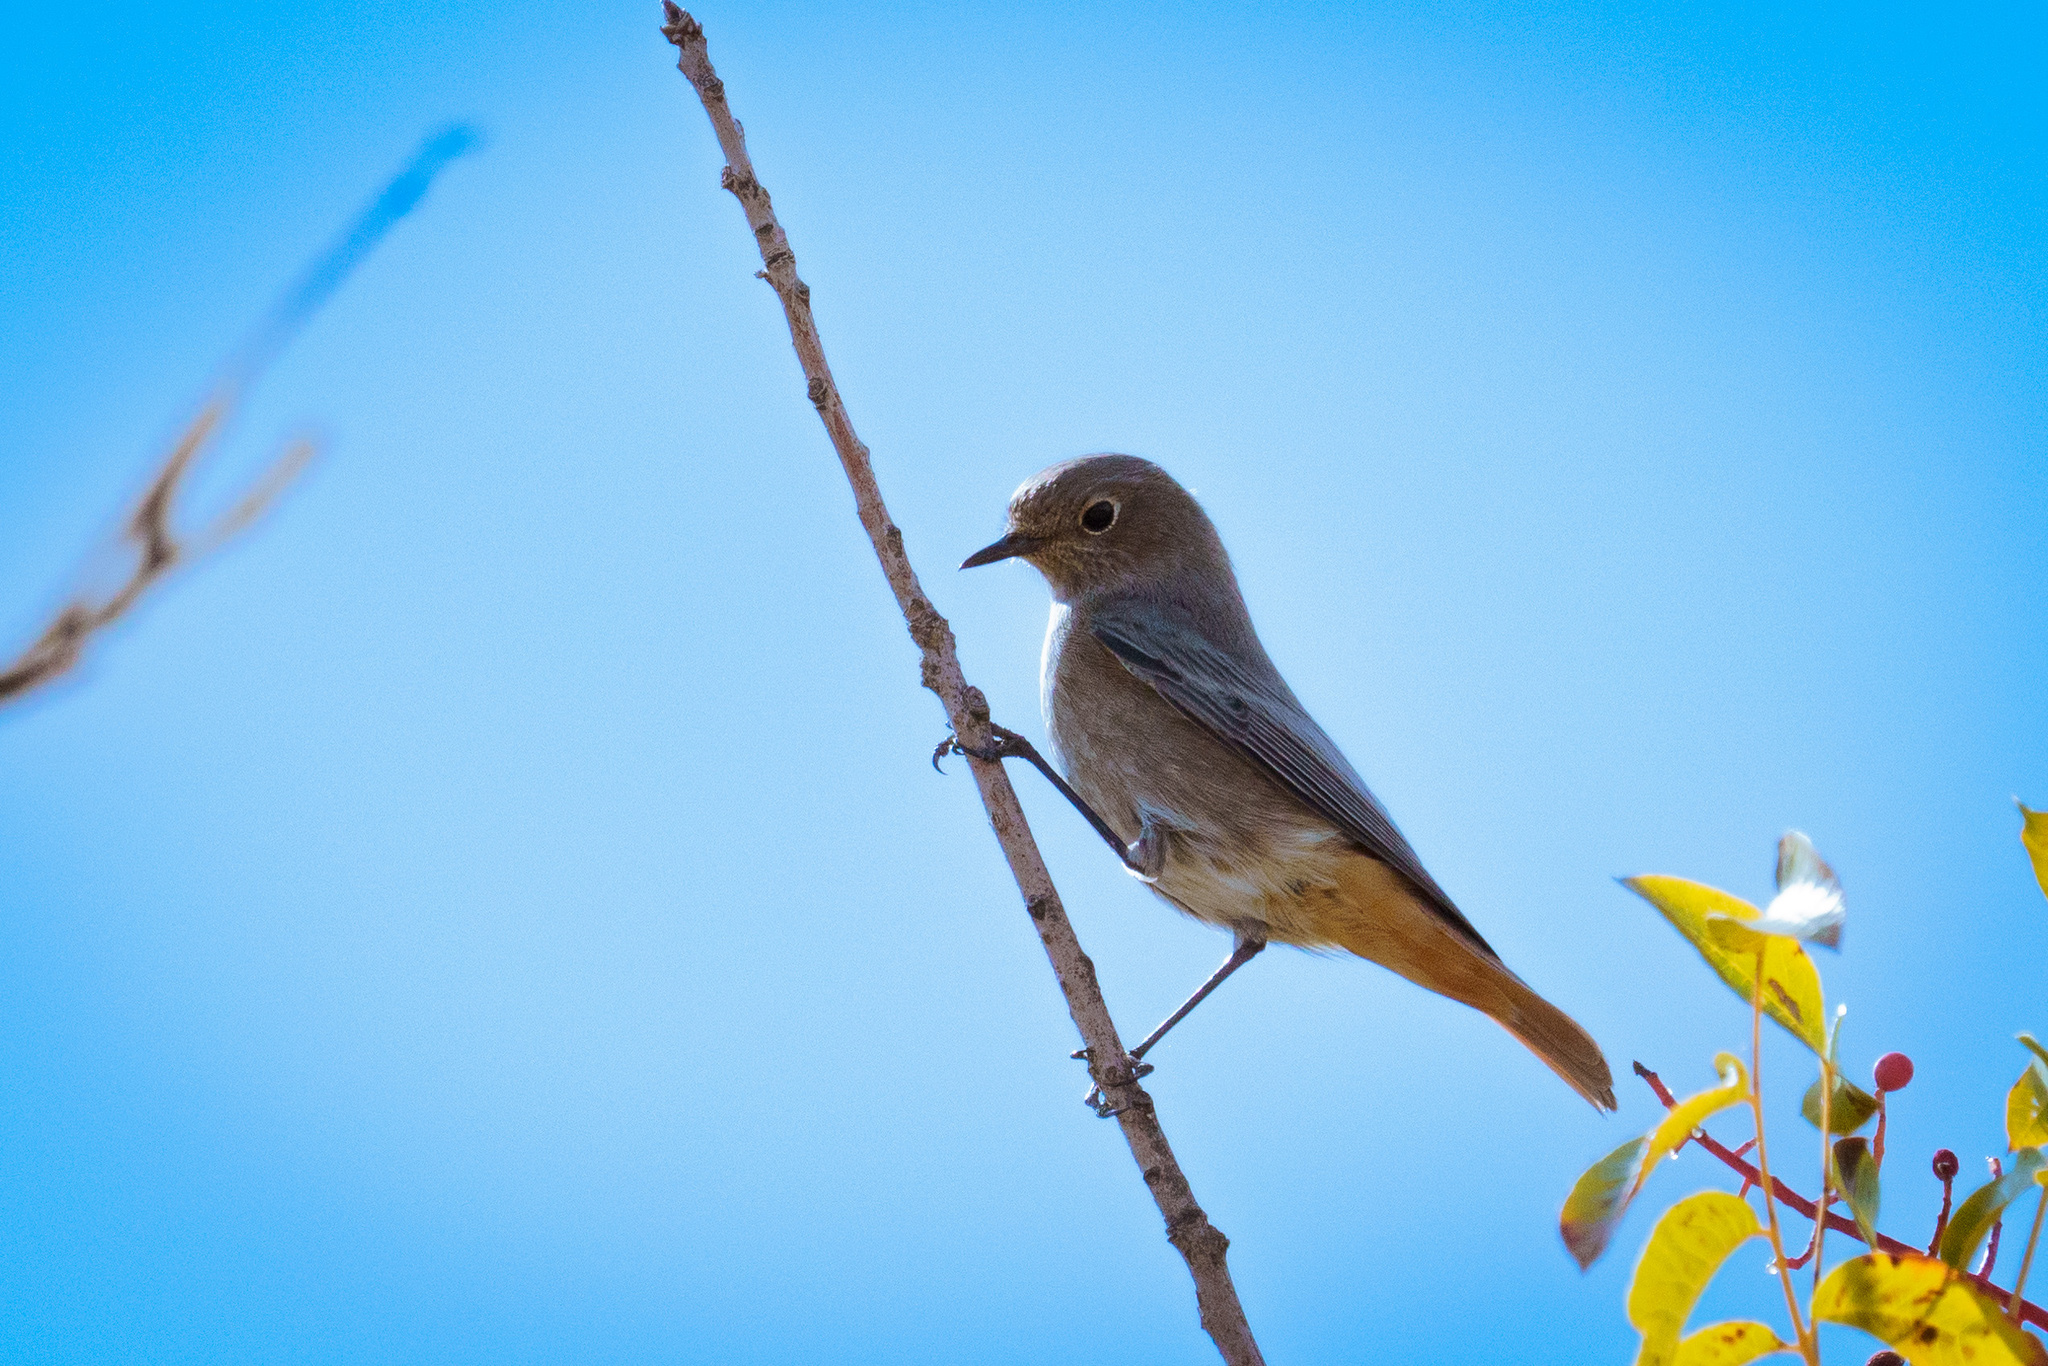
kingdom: Animalia
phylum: Chordata
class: Aves
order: Passeriformes
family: Muscicapidae
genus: Phoenicurus
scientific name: Phoenicurus ochruros
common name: Black redstart
